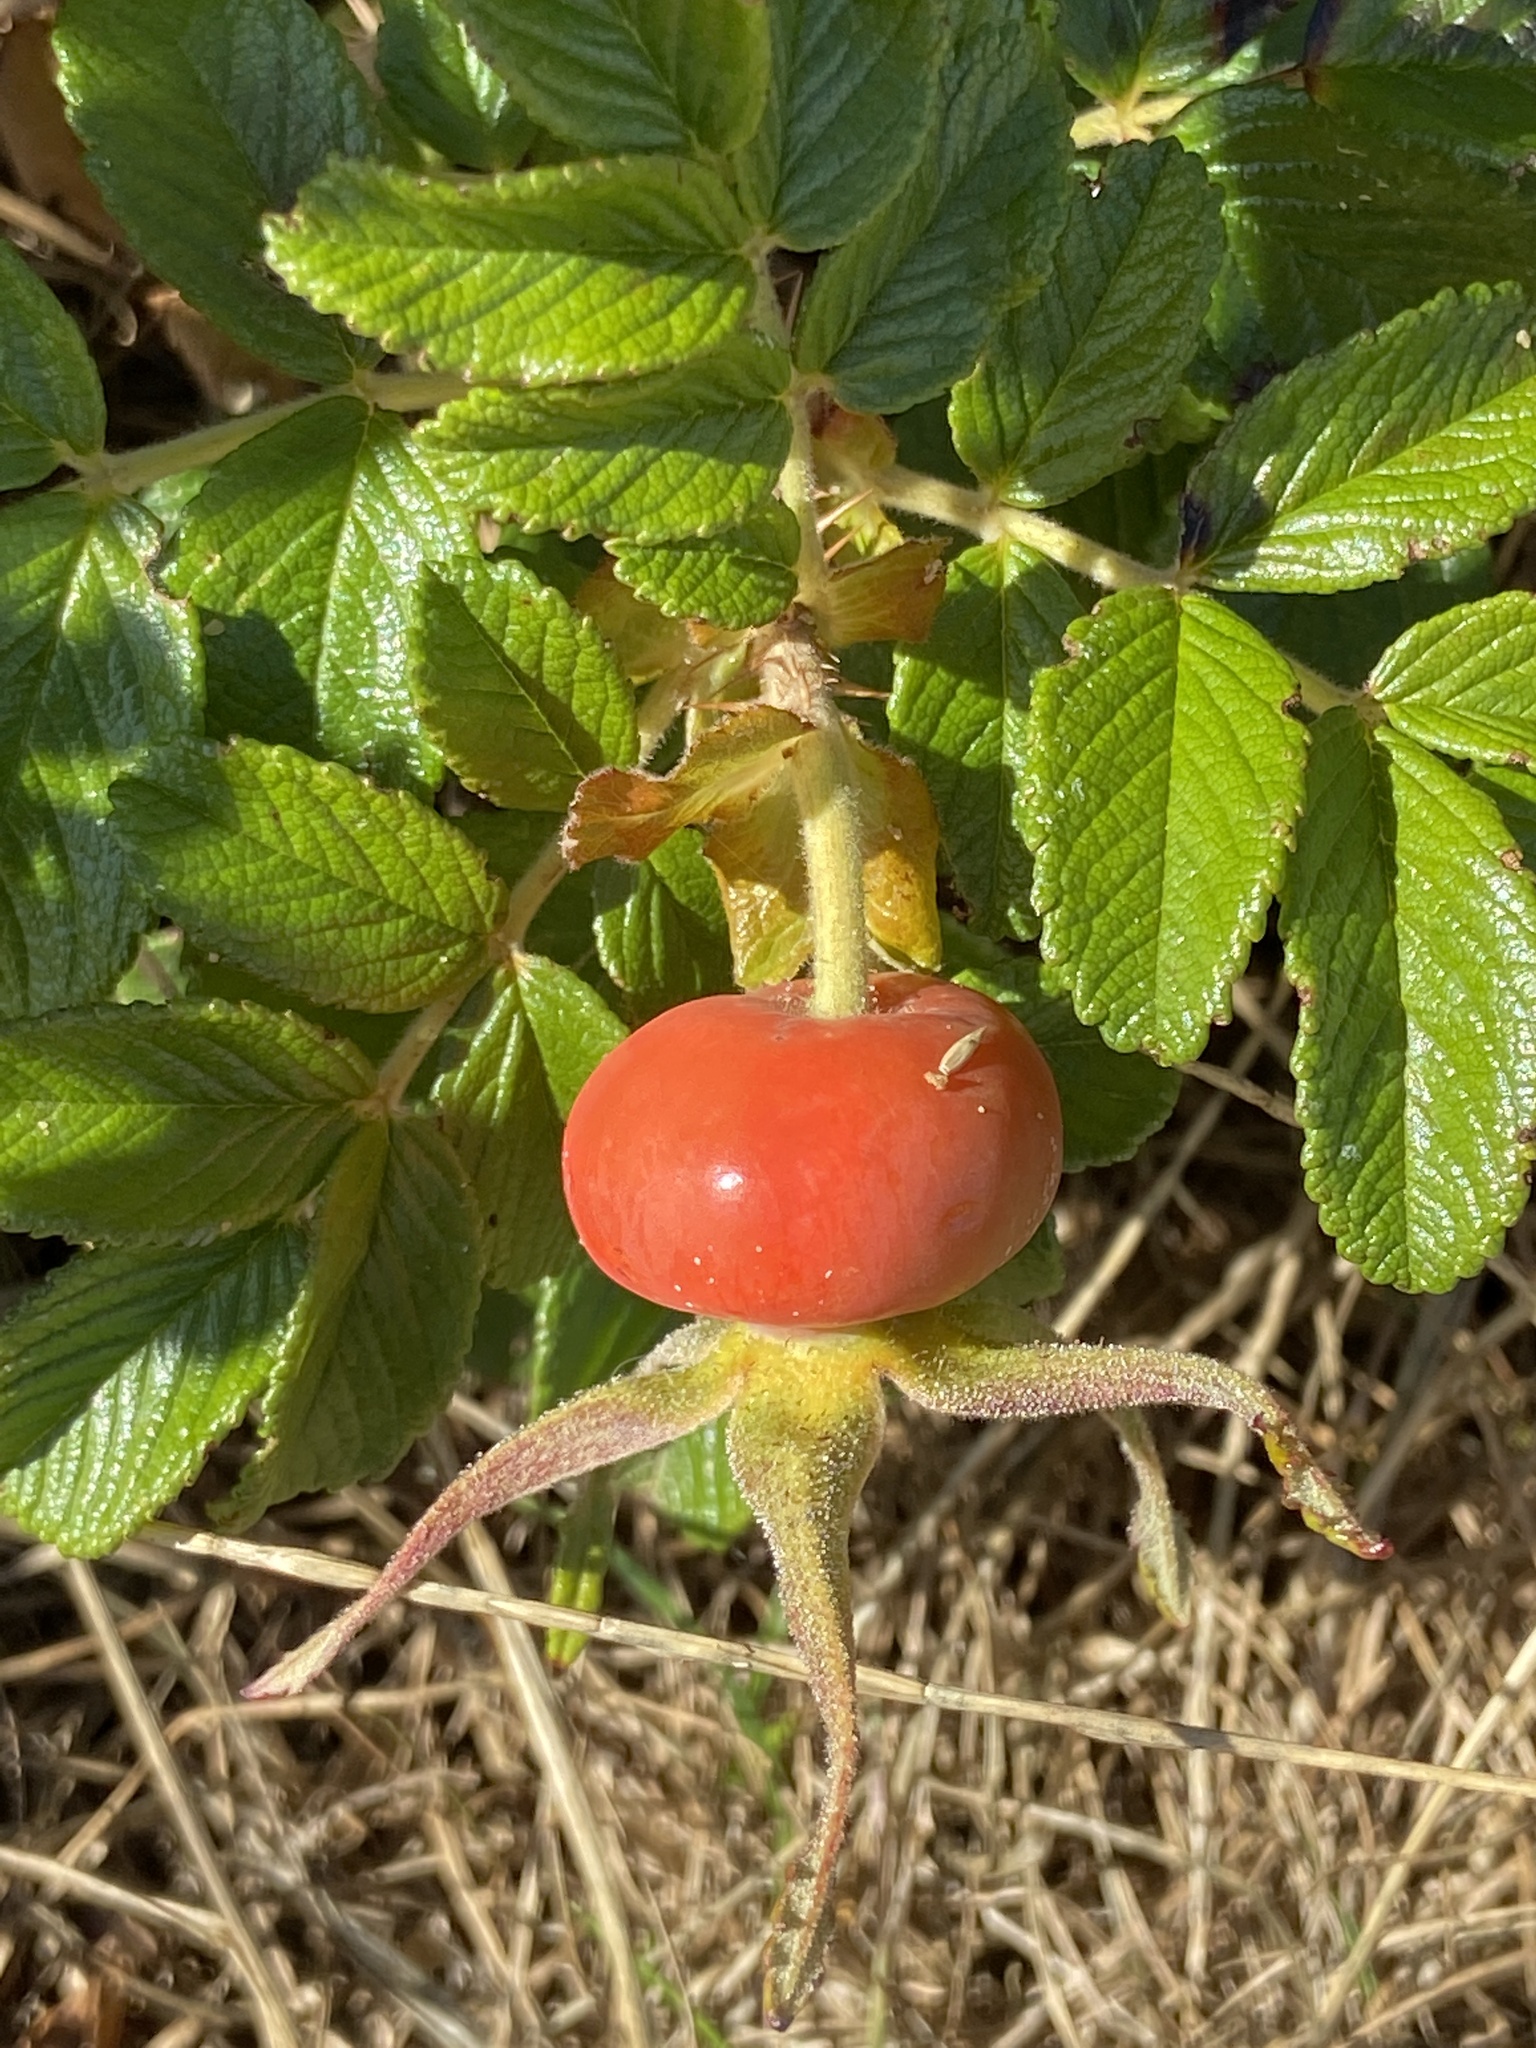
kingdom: Plantae
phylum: Tracheophyta
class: Magnoliopsida
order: Rosales
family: Rosaceae
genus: Rosa
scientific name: Rosa rugosa
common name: Japanese rose
